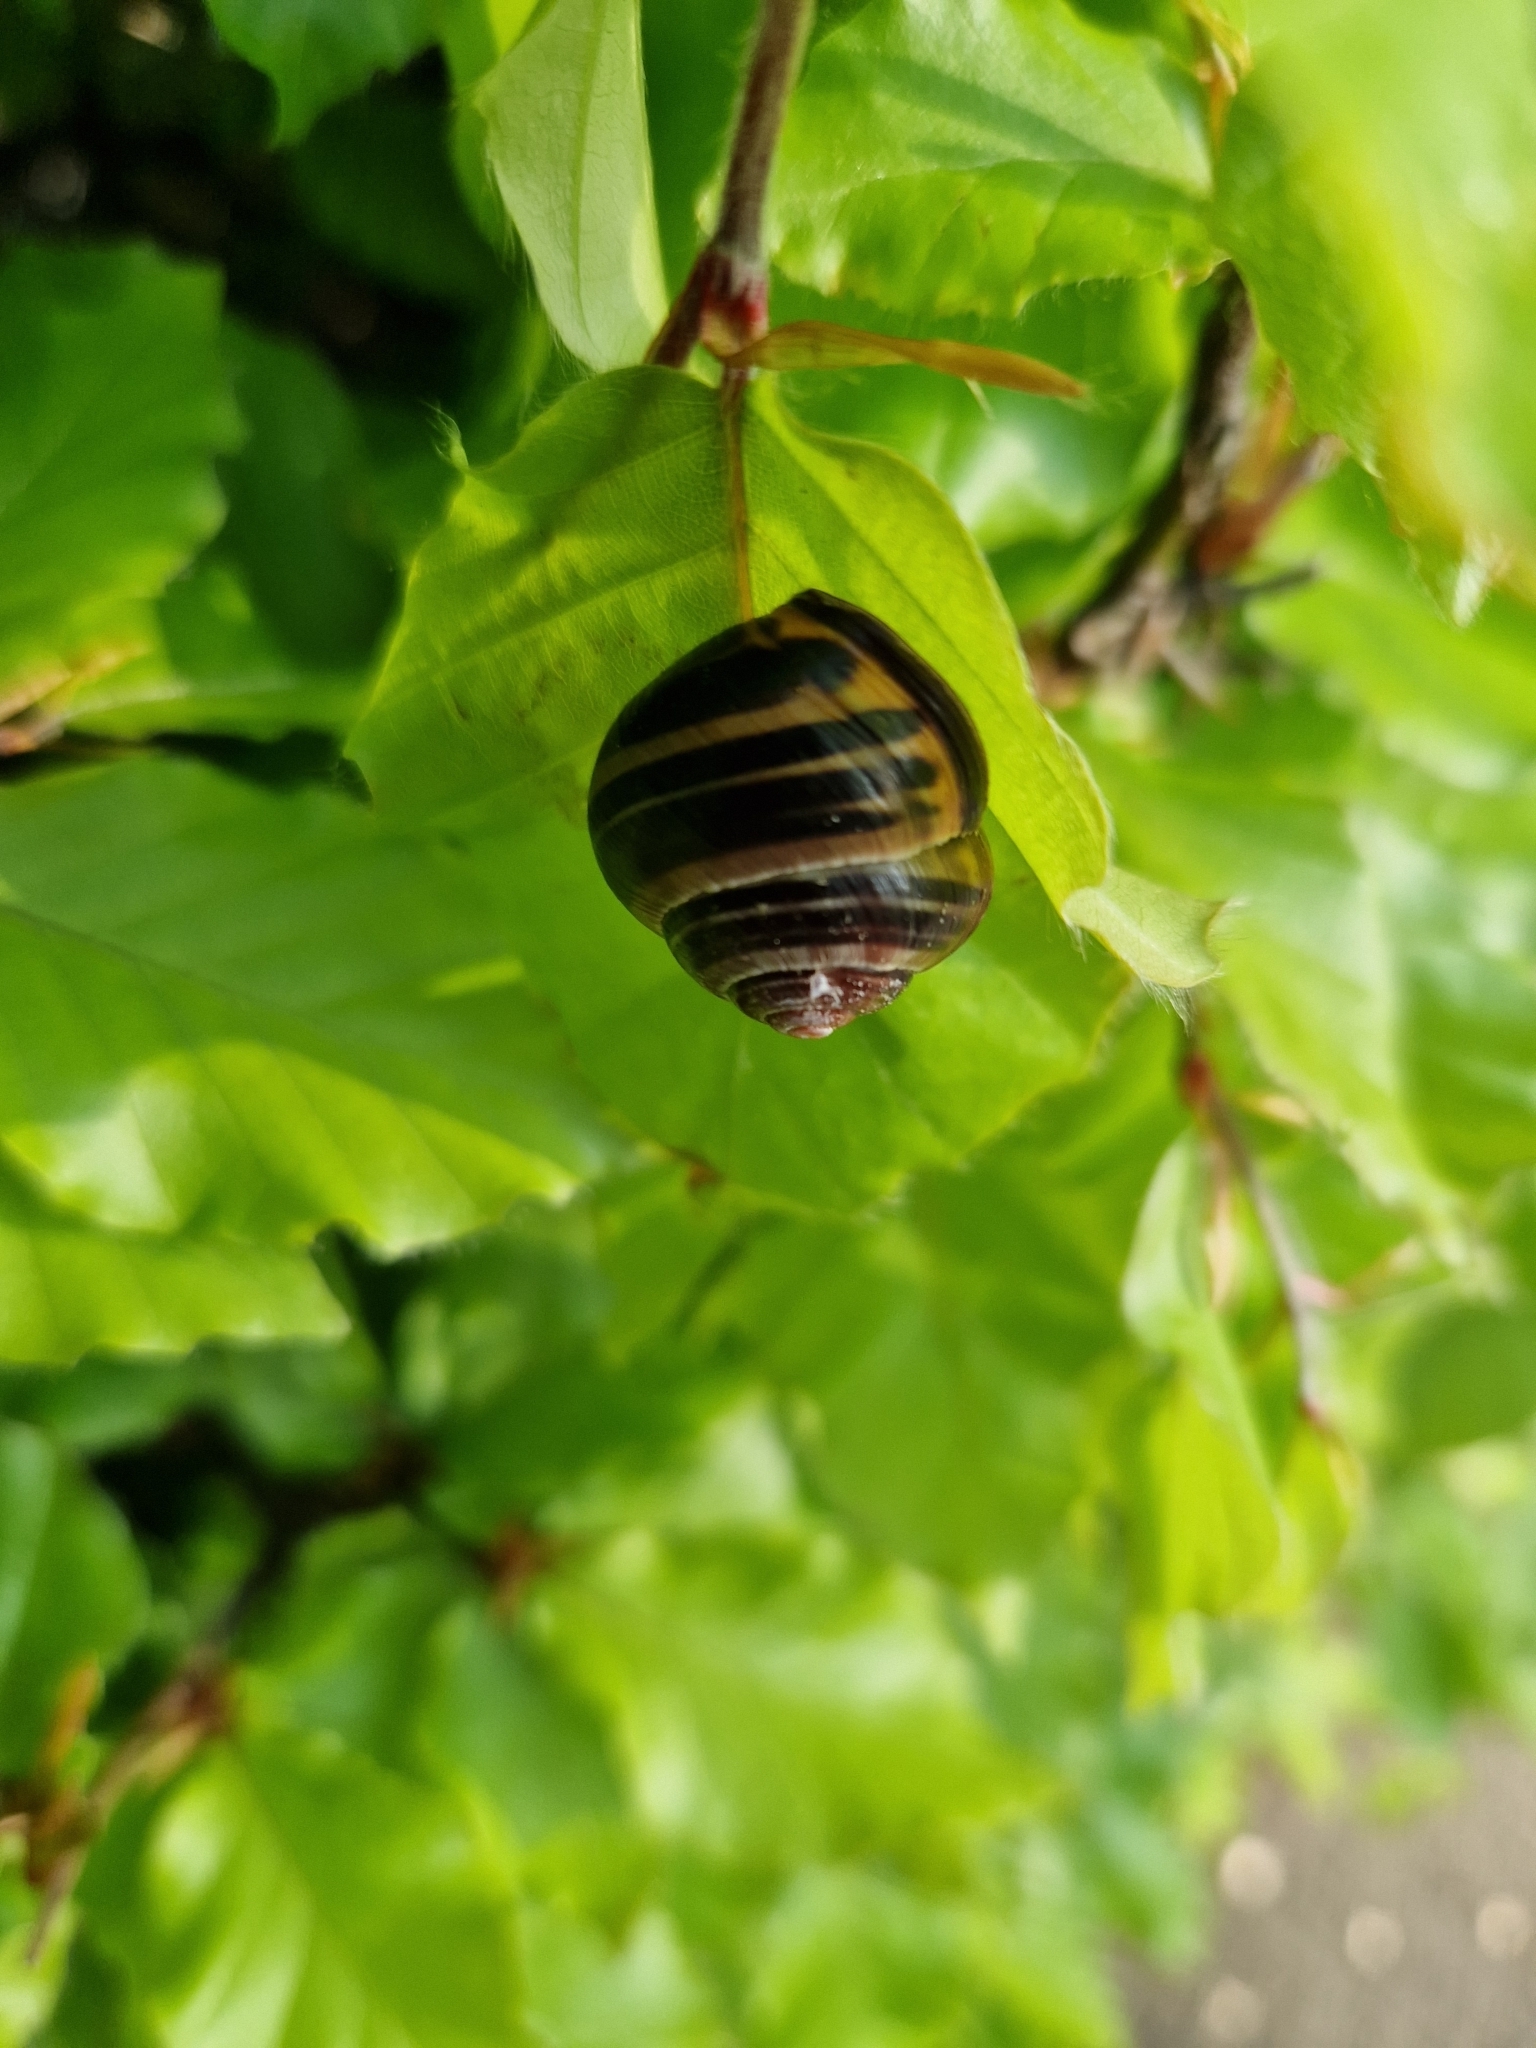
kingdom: Animalia
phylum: Mollusca
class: Gastropoda
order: Stylommatophora
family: Helicidae
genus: Cepaea
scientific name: Cepaea nemoralis
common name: Grovesnail
